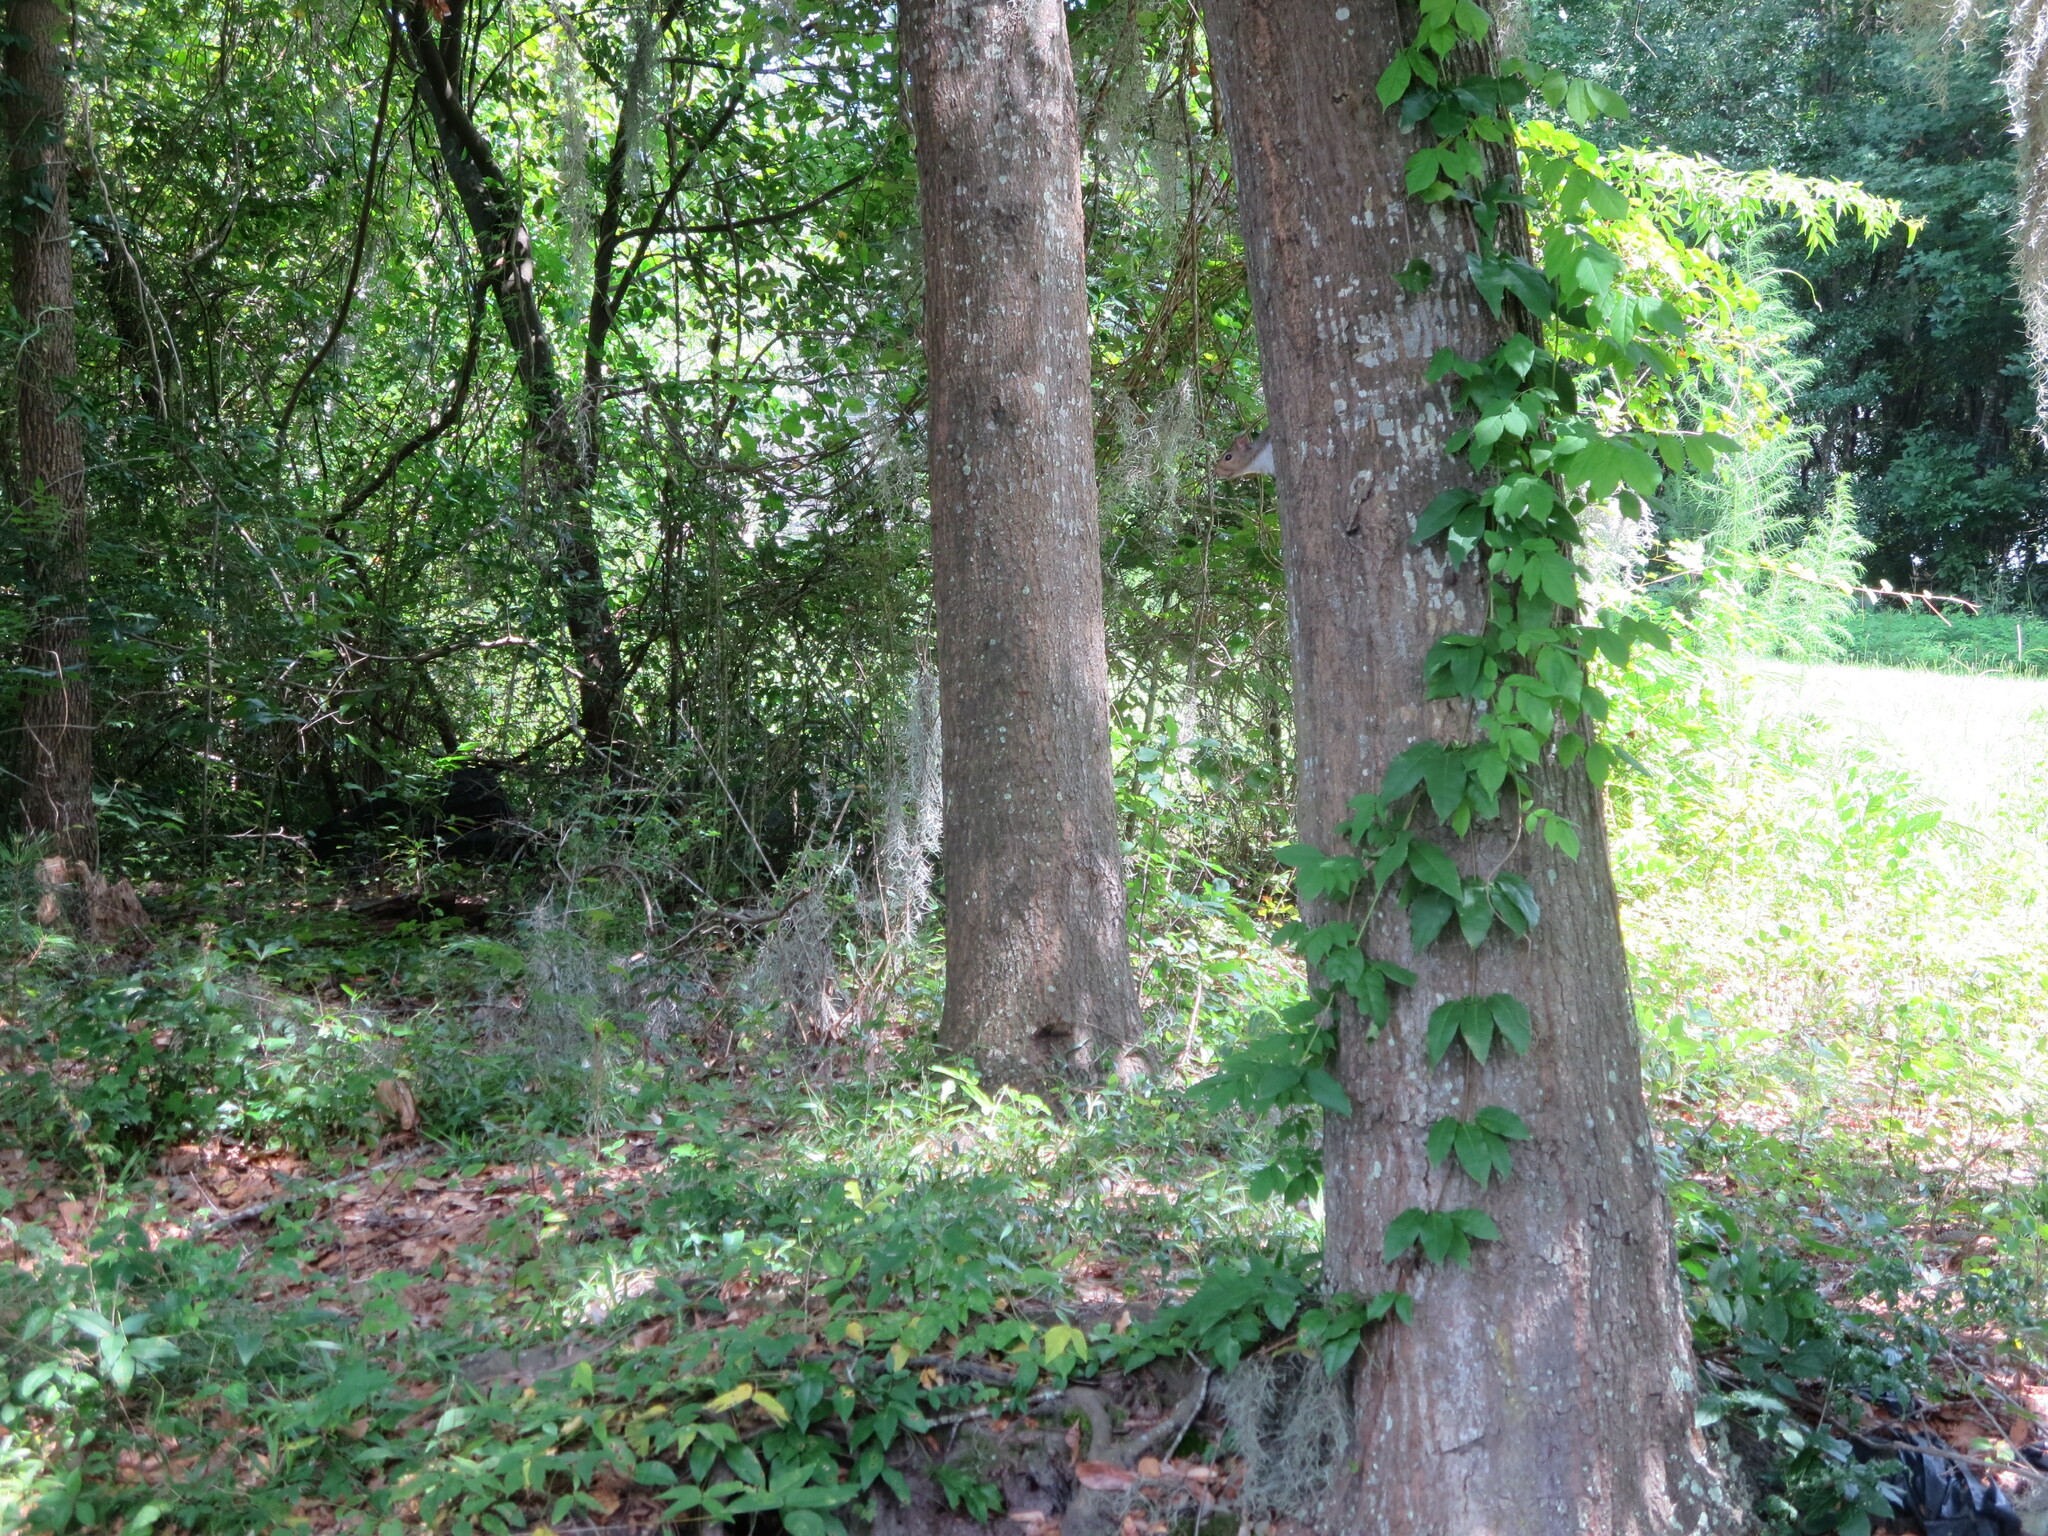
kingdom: Animalia
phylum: Chordata
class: Mammalia
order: Rodentia
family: Sciuridae
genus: Sciurus
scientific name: Sciurus carolinensis
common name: Eastern gray squirrel
